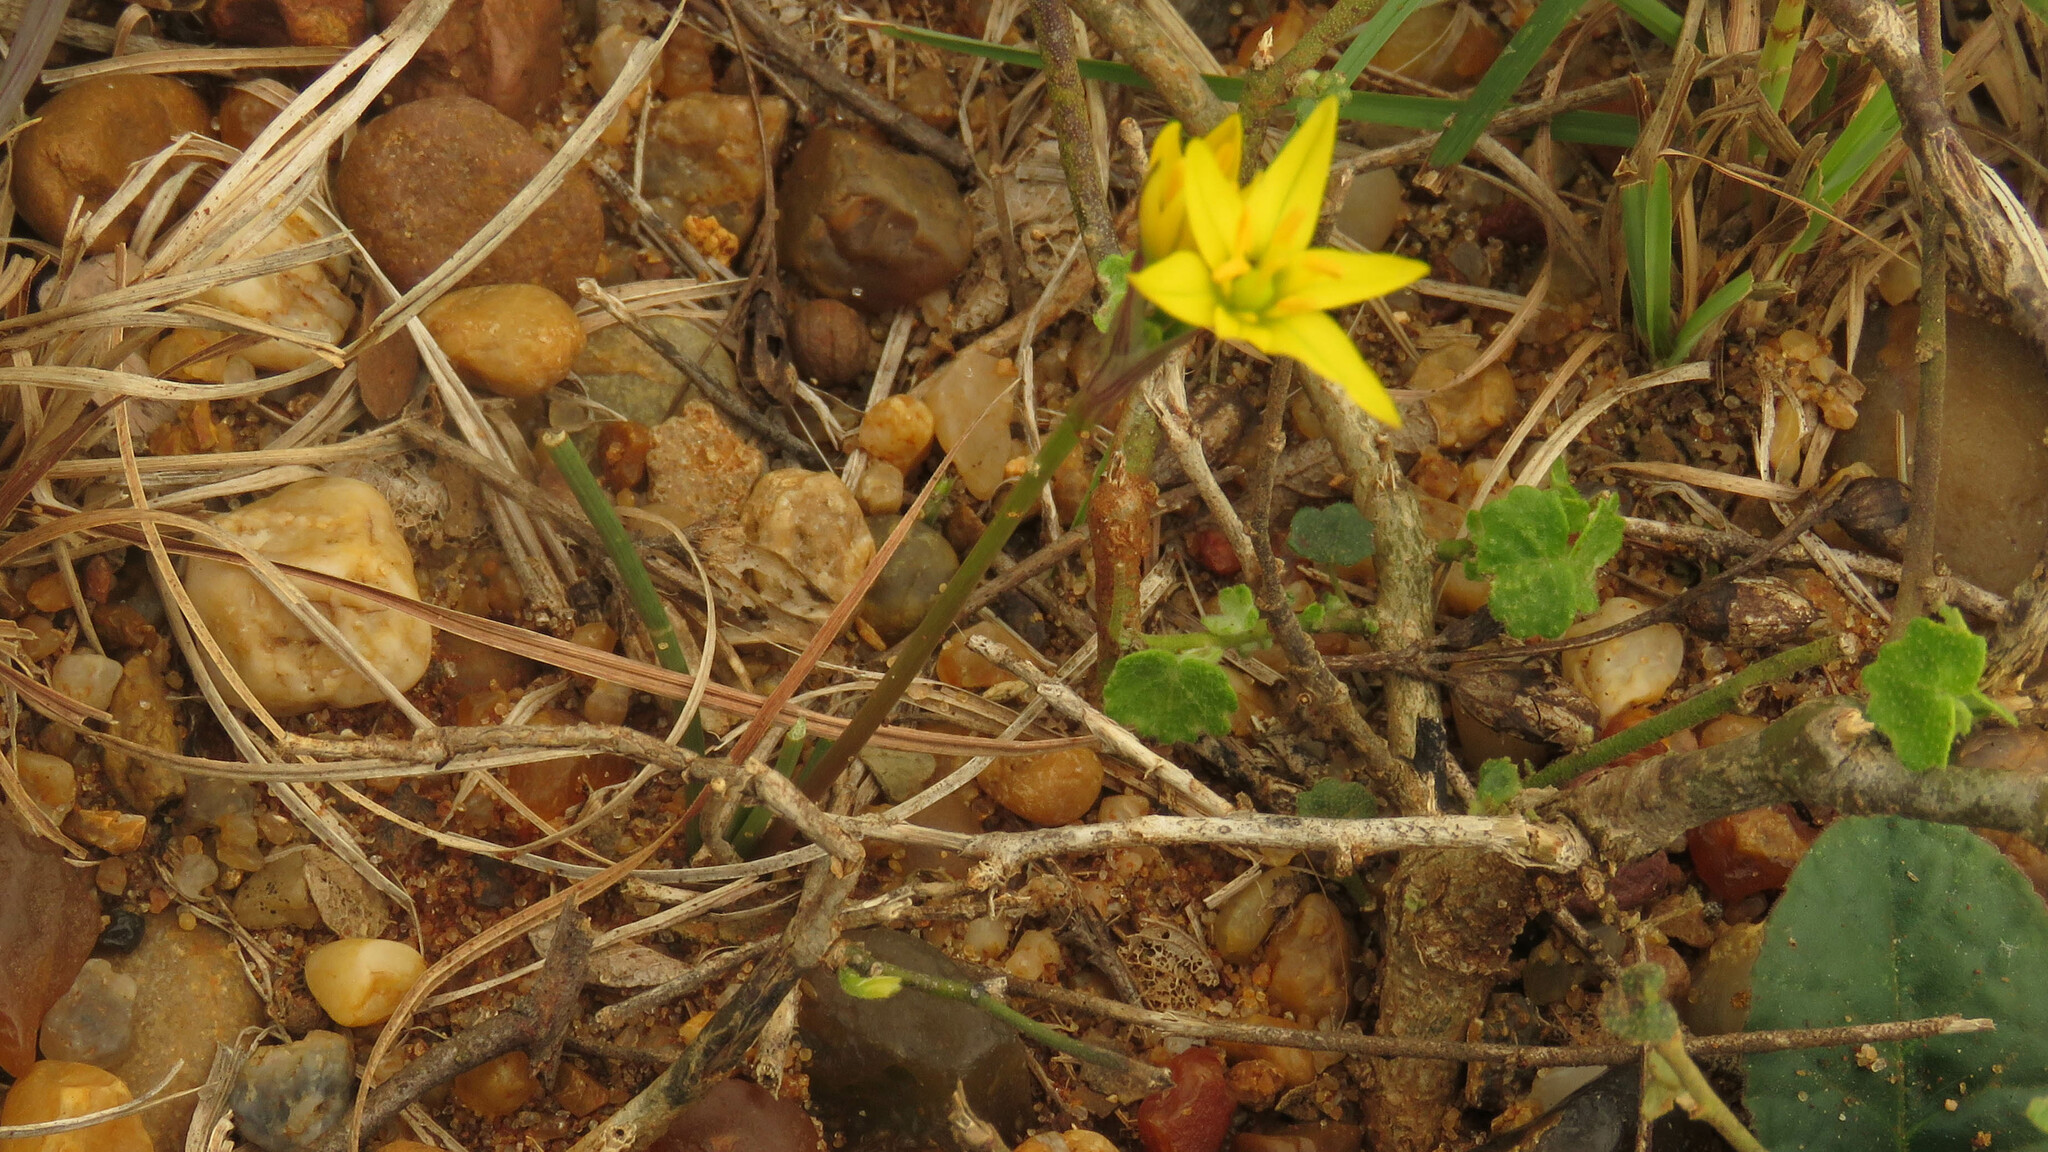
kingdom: Plantae
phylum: Tracheophyta
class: Liliopsida
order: Asparagales
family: Amaryllidaceae
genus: Nothoscordum
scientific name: Nothoscordum montevidense
